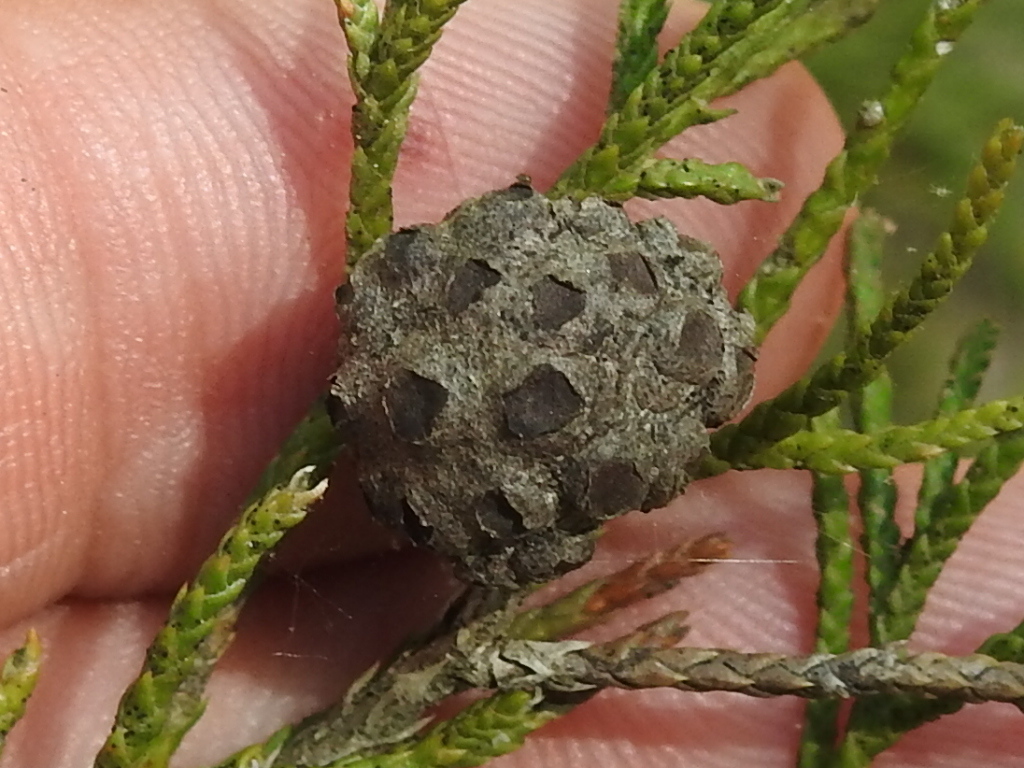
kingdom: Fungi
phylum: Basidiomycota
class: Pucciniomycetes
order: Pucciniales
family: Gymnosporangiaceae
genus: Gymnosporangium
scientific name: Gymnosporangium juniperi-virginianae
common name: Juniper-apple rust
